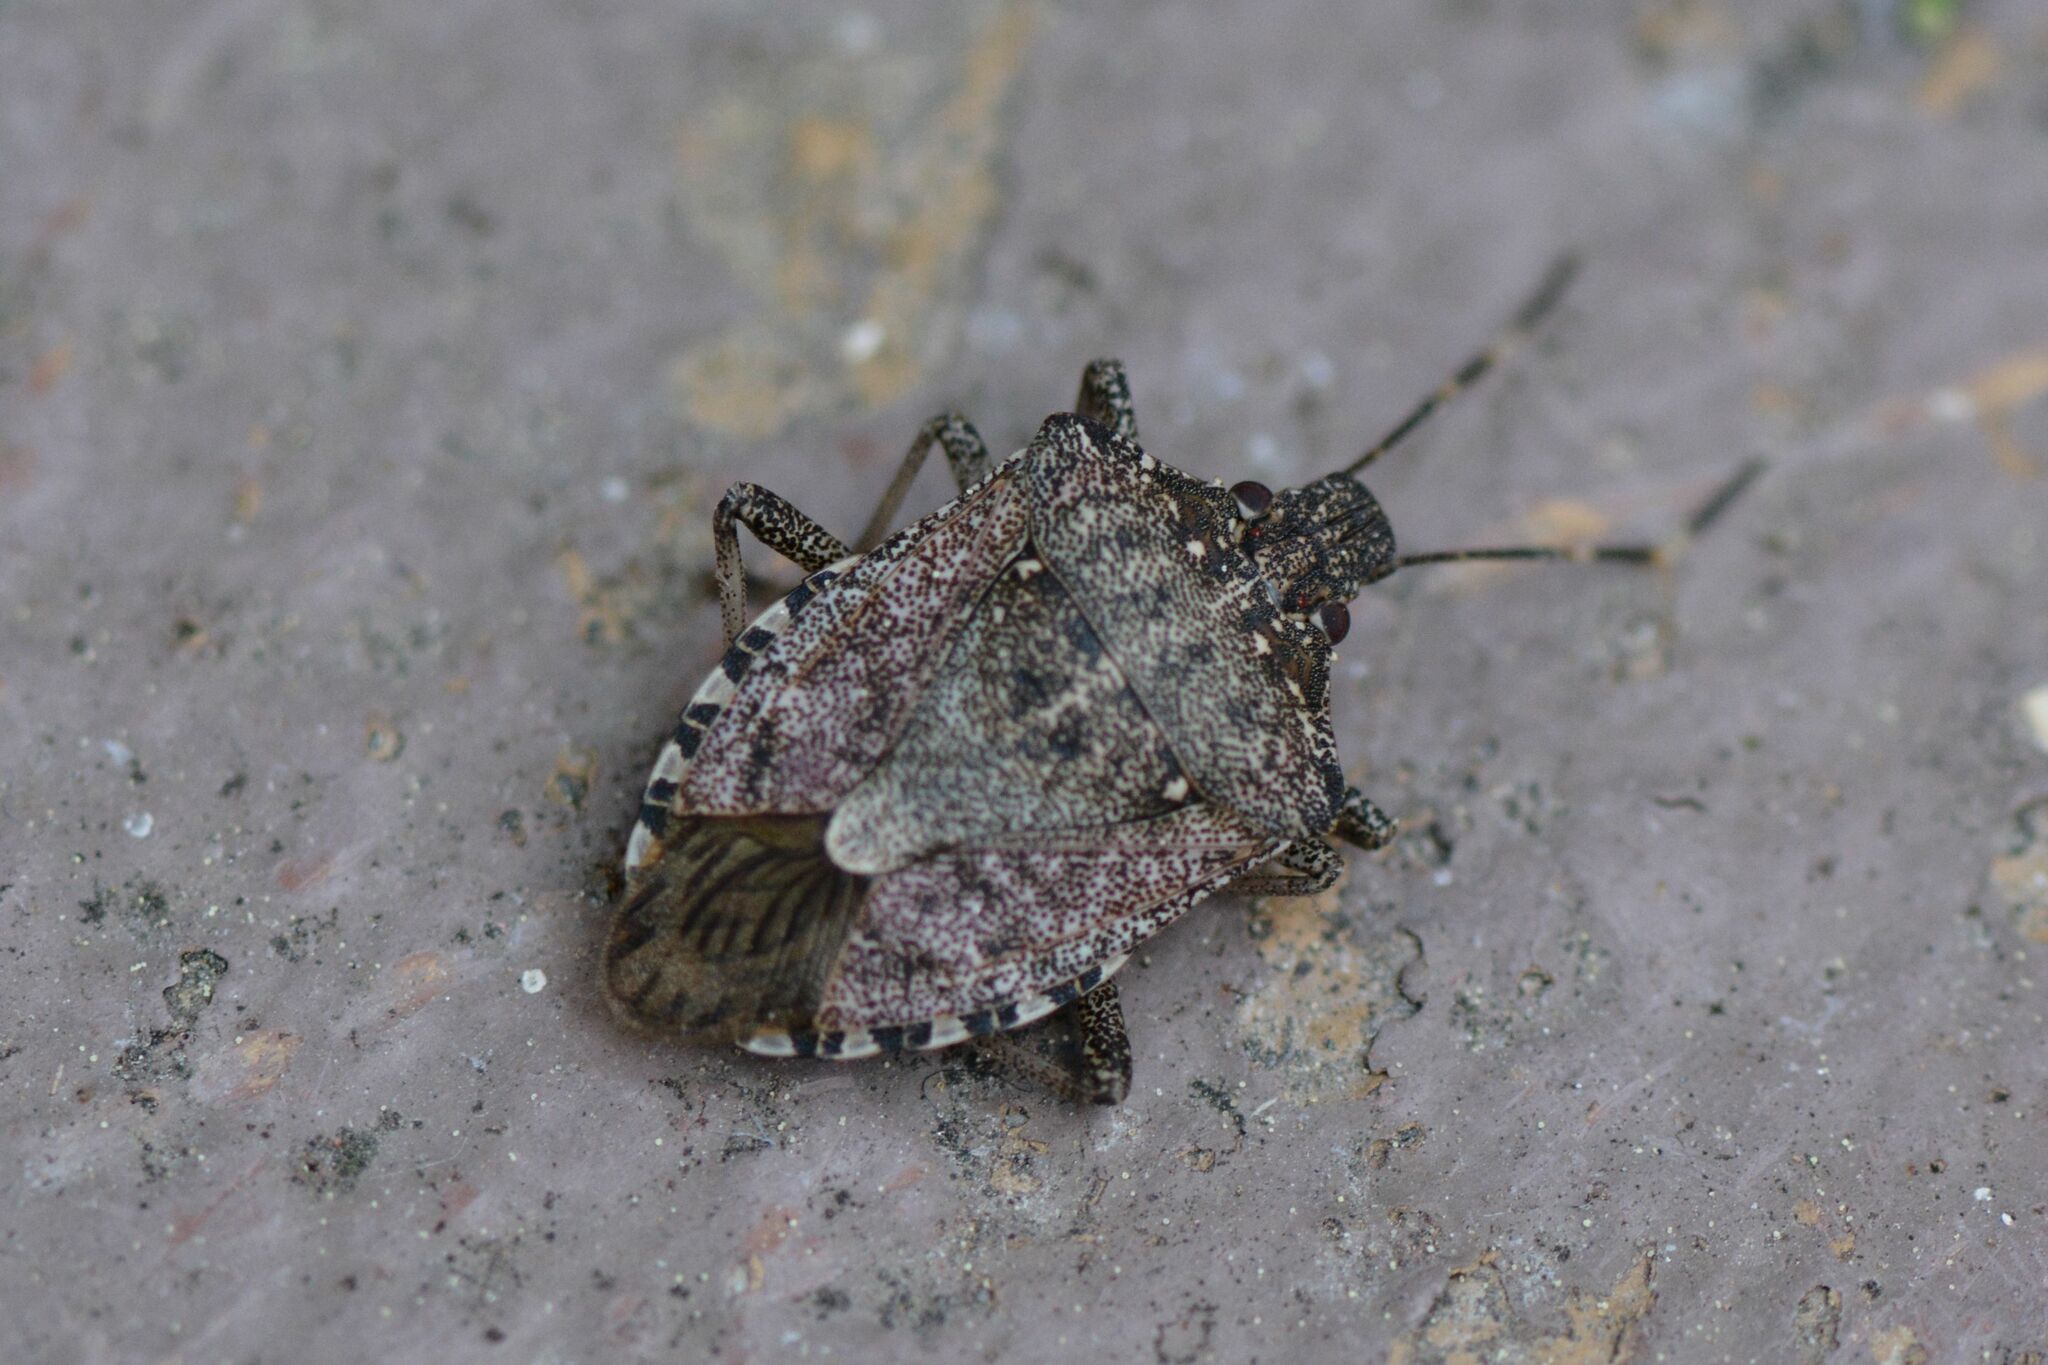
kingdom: Animalia
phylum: Arthropoda
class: Insecta
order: Hemiptera
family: Pentatomidae
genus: Halyomorpha
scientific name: Halyomorpha halys
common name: Brown marmorated stink bug
